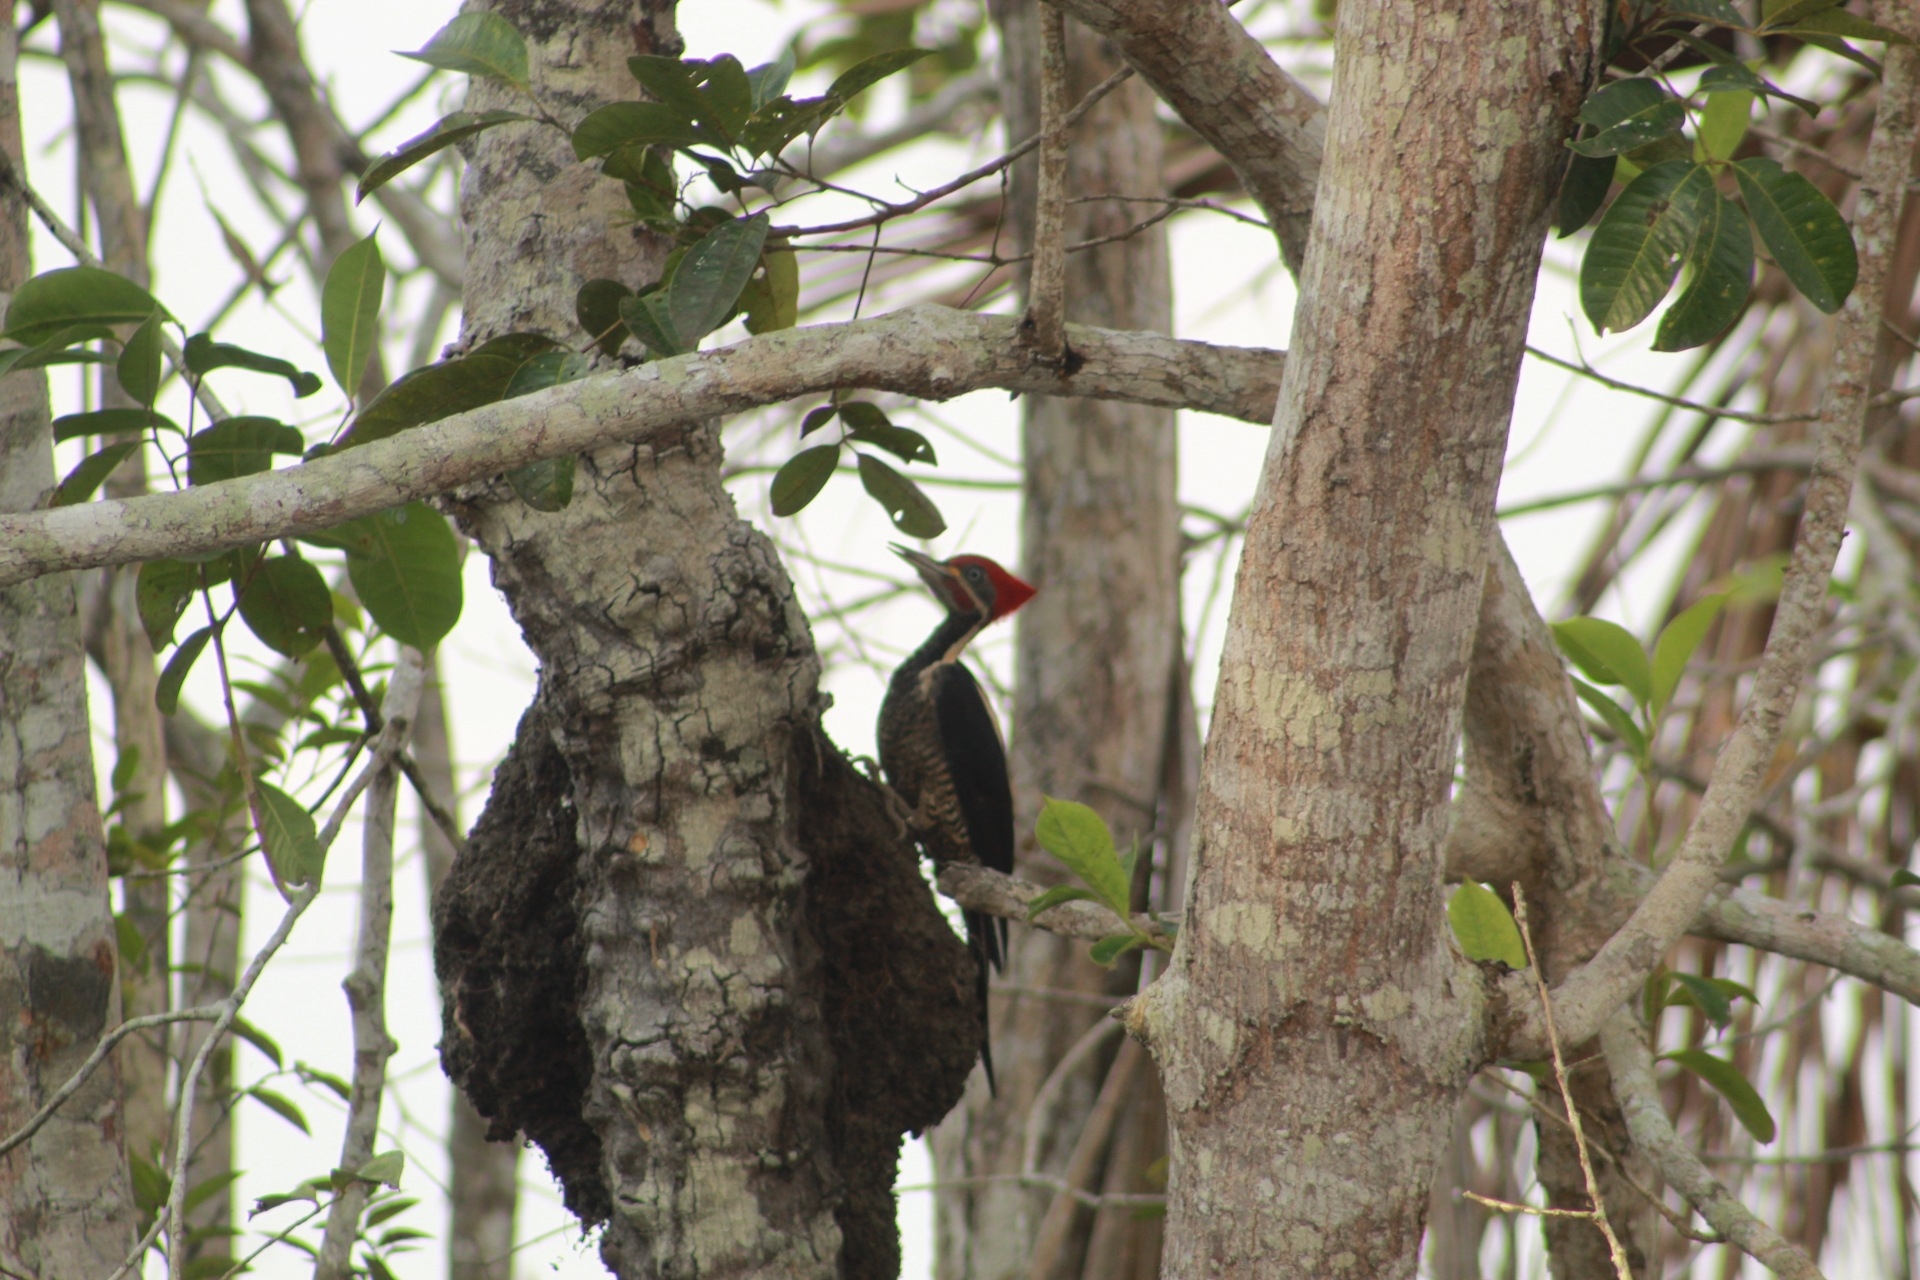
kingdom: Animalia
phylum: Chordata
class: Aves
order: Piciformes
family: Picidae
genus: Dryocopus
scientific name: Dryocopus lineatus
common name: Lineated woodpecker
